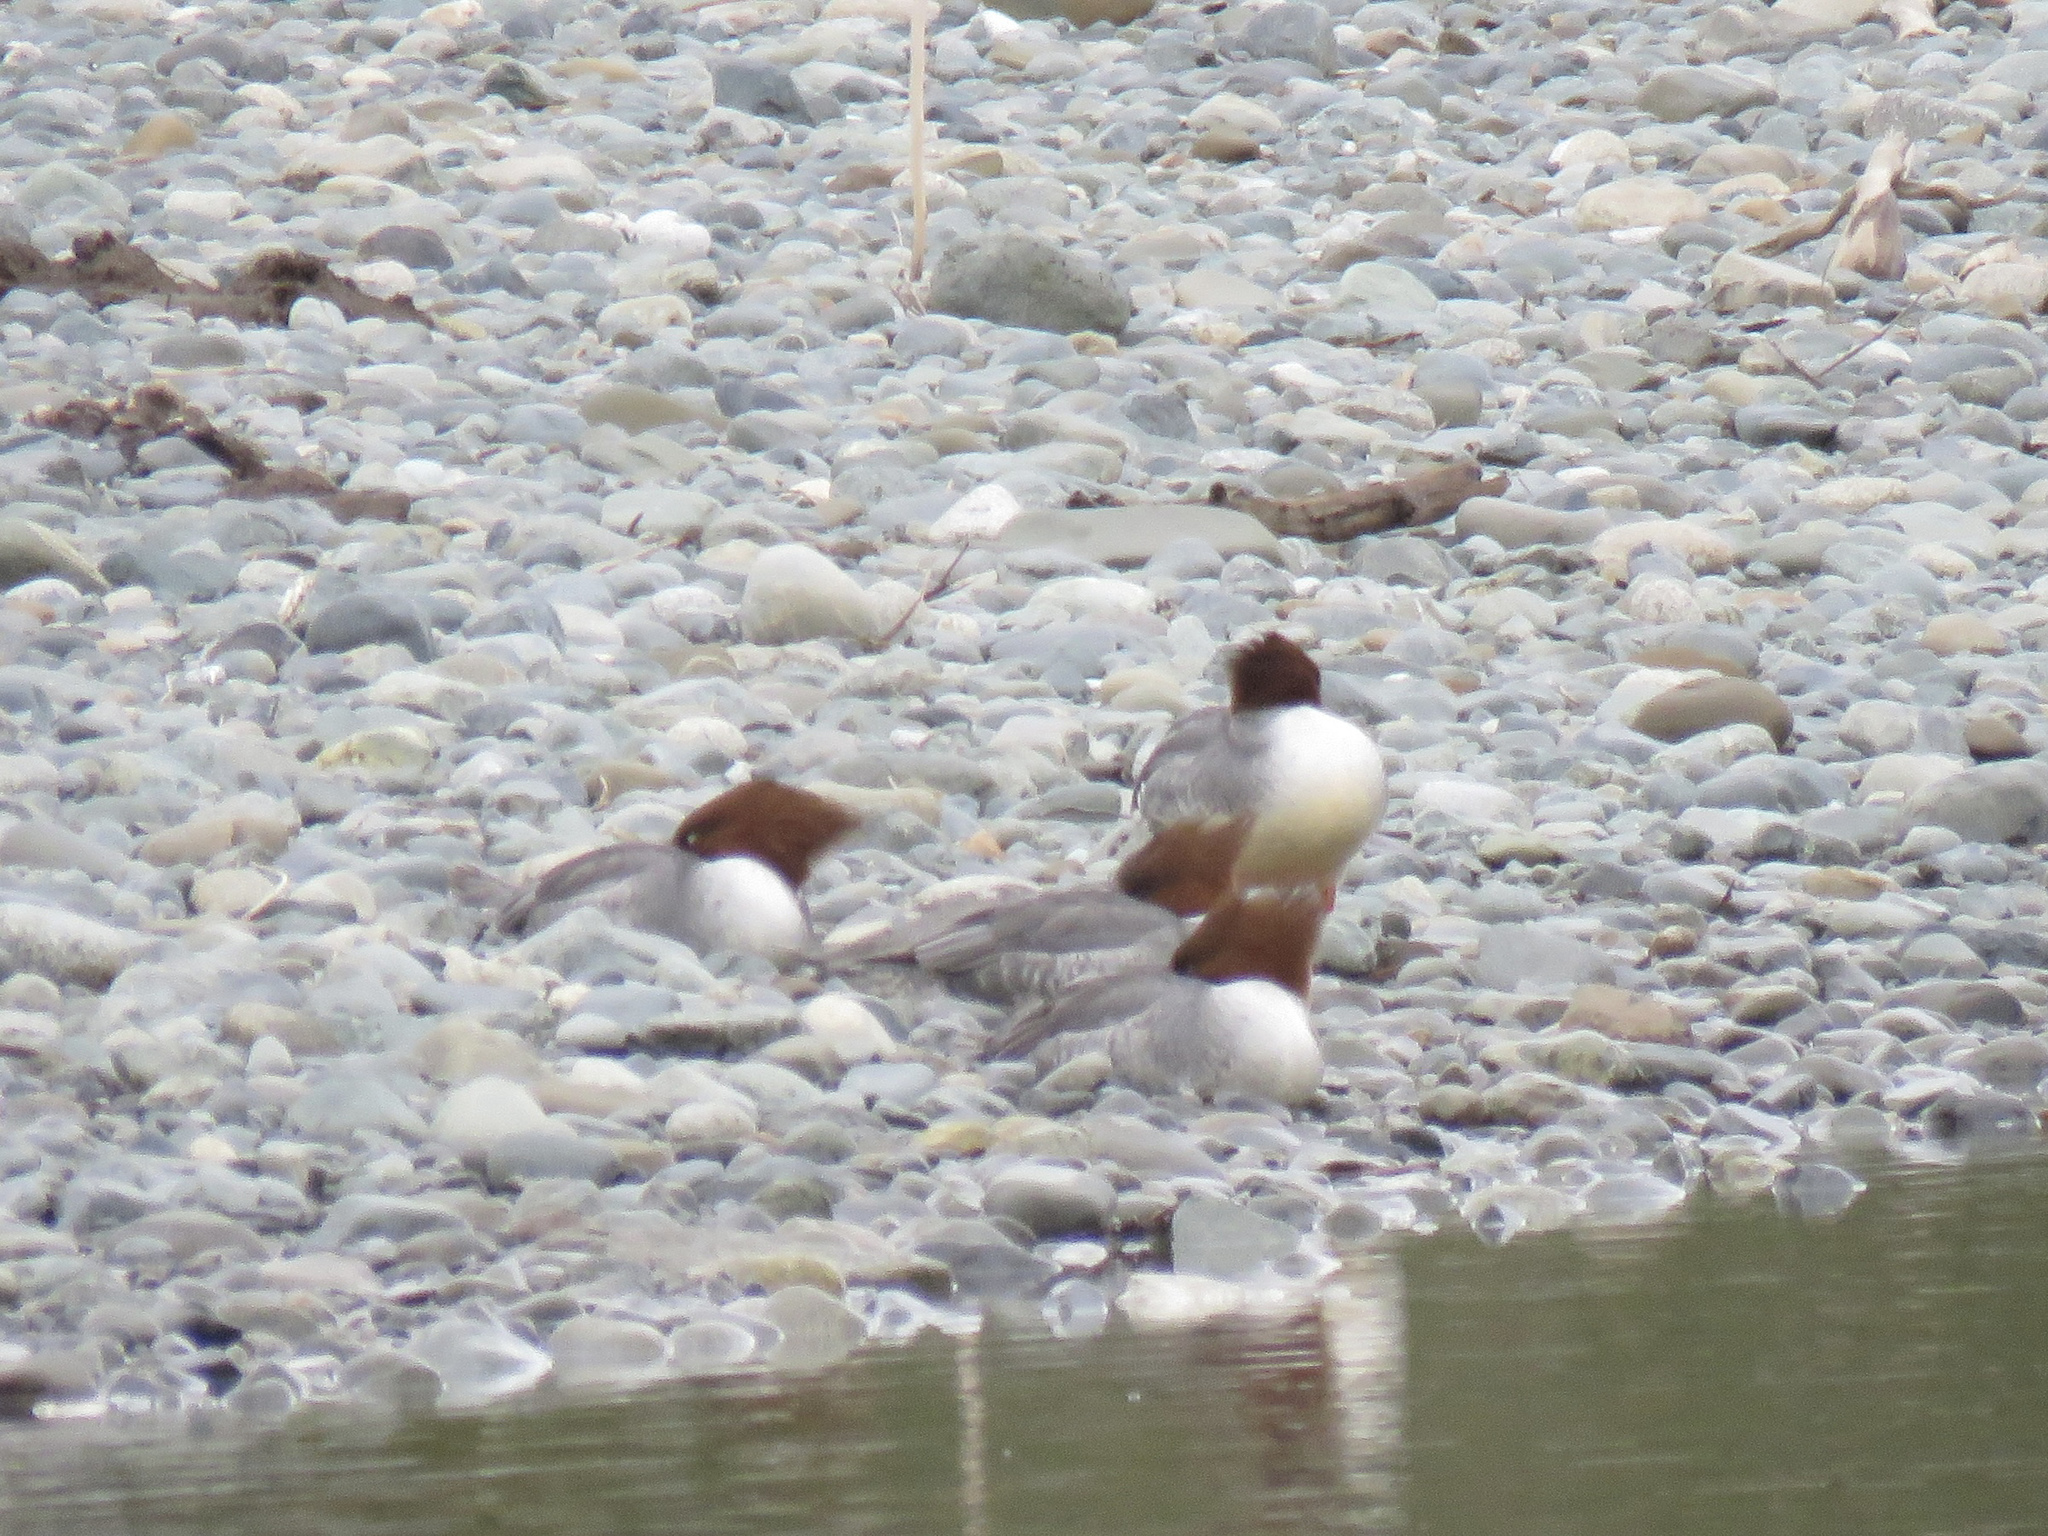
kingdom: Animalia
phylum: Chordata
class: Aves
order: Anseriformes
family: Anatidae
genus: Mergus
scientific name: Mergus merganser
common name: Common merganser
